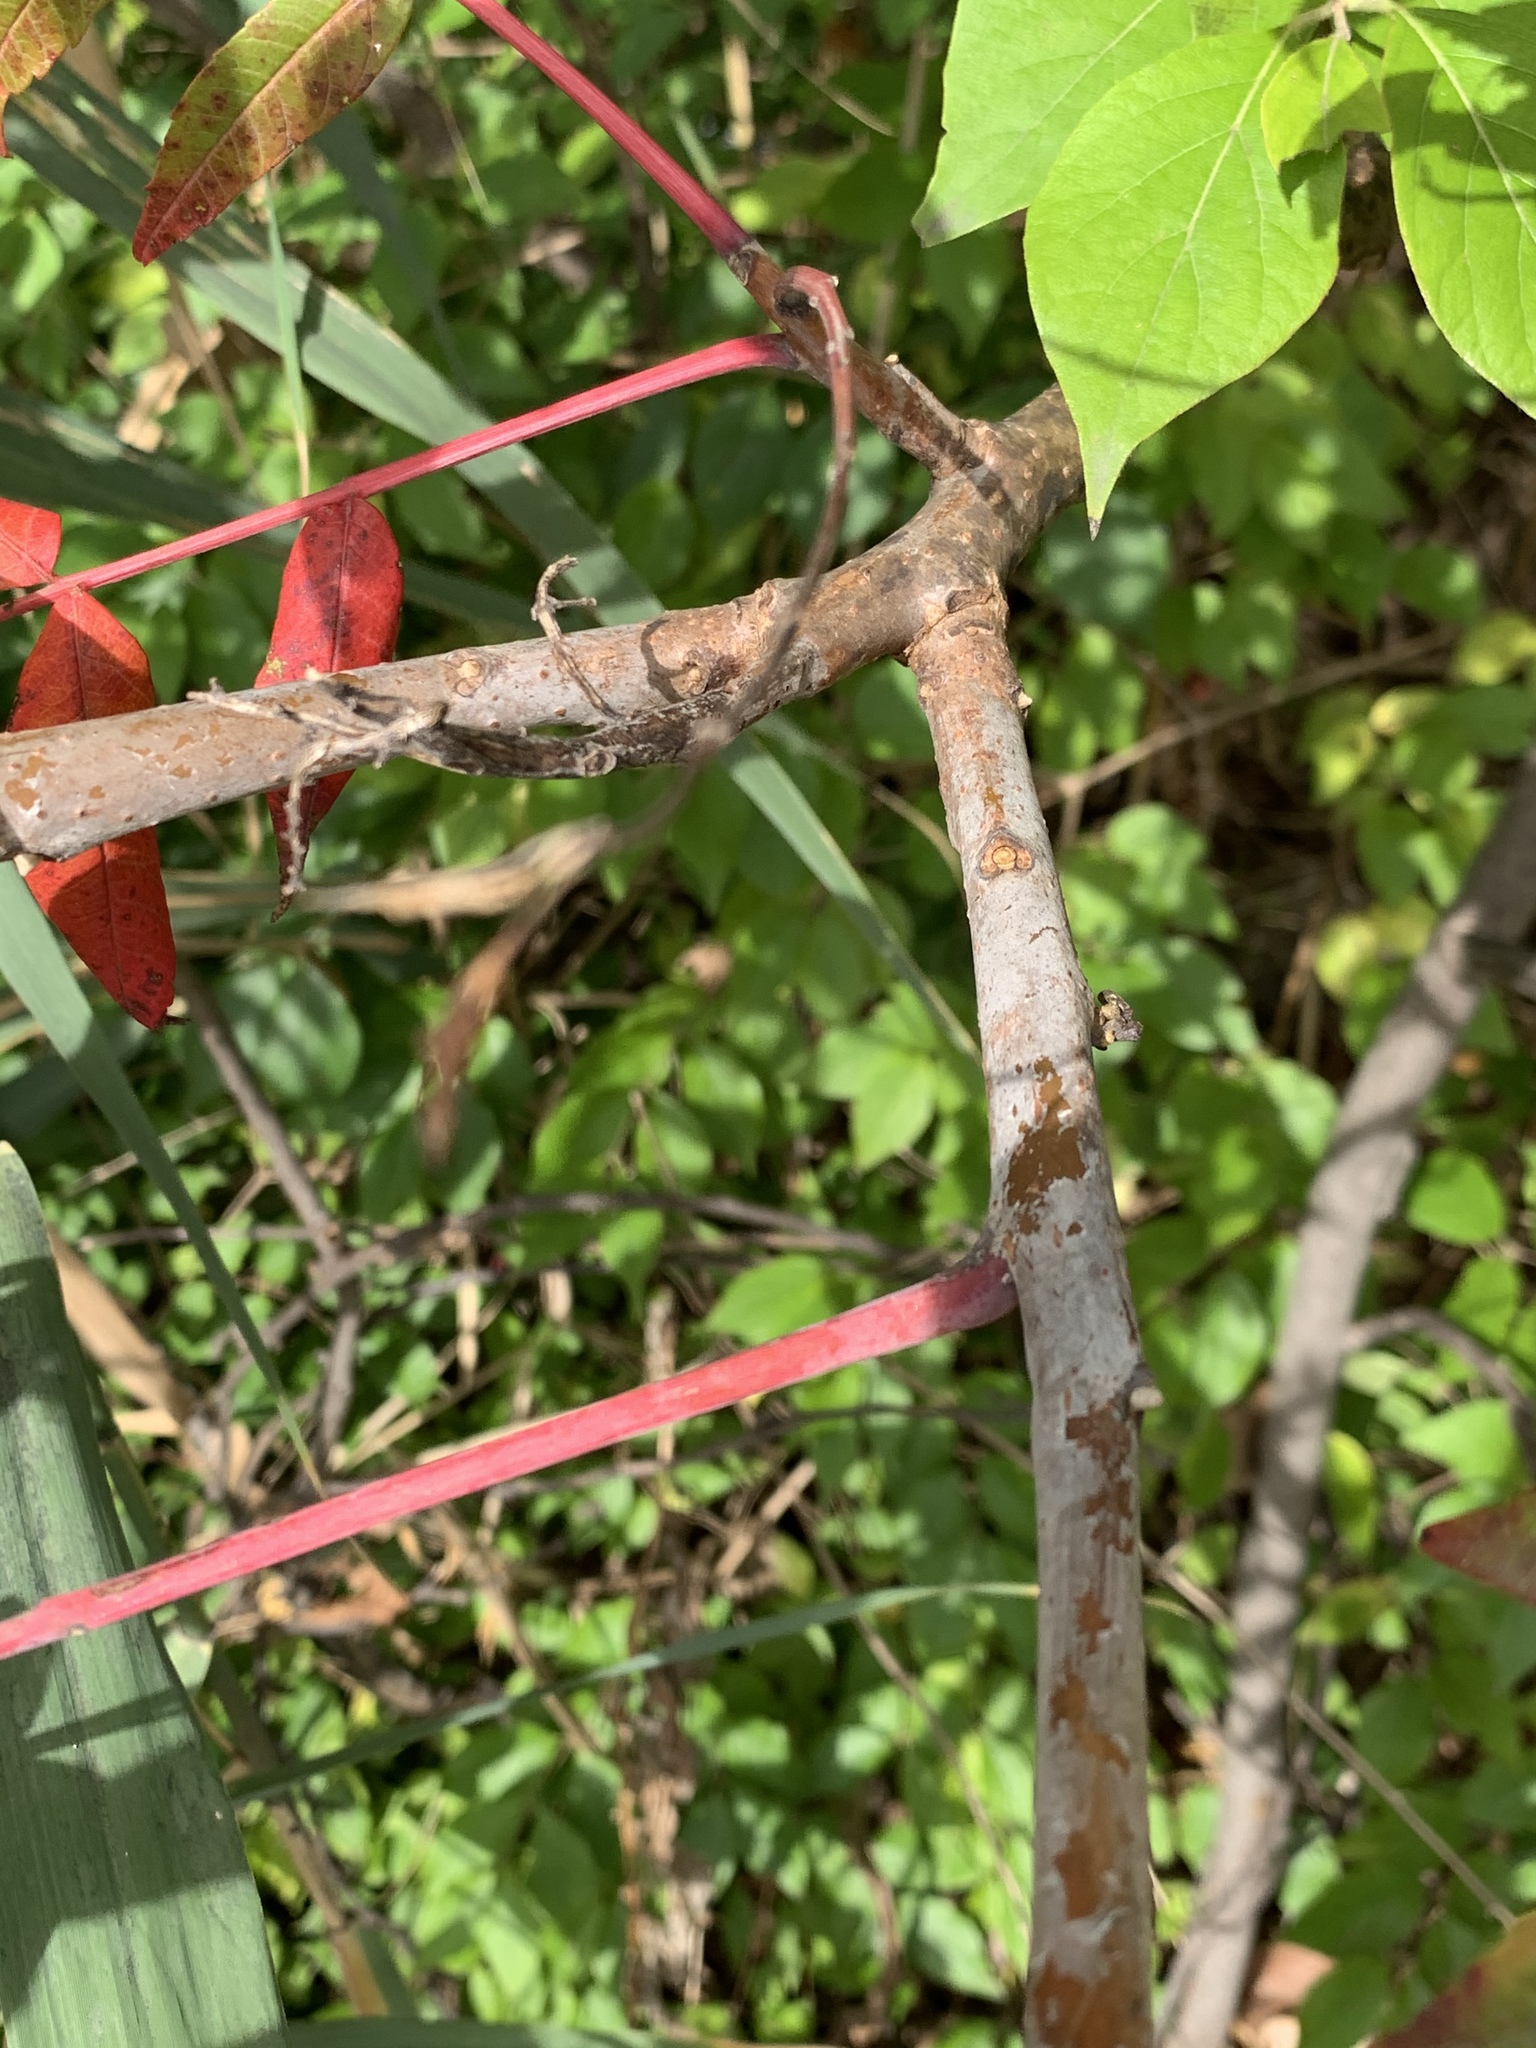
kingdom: Plantae
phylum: Tracheophyta
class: Magnoliopsida
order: Sapindales
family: Anacardiaceae
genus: Rhus
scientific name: Rhus glabra
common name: Scarlet sumac
